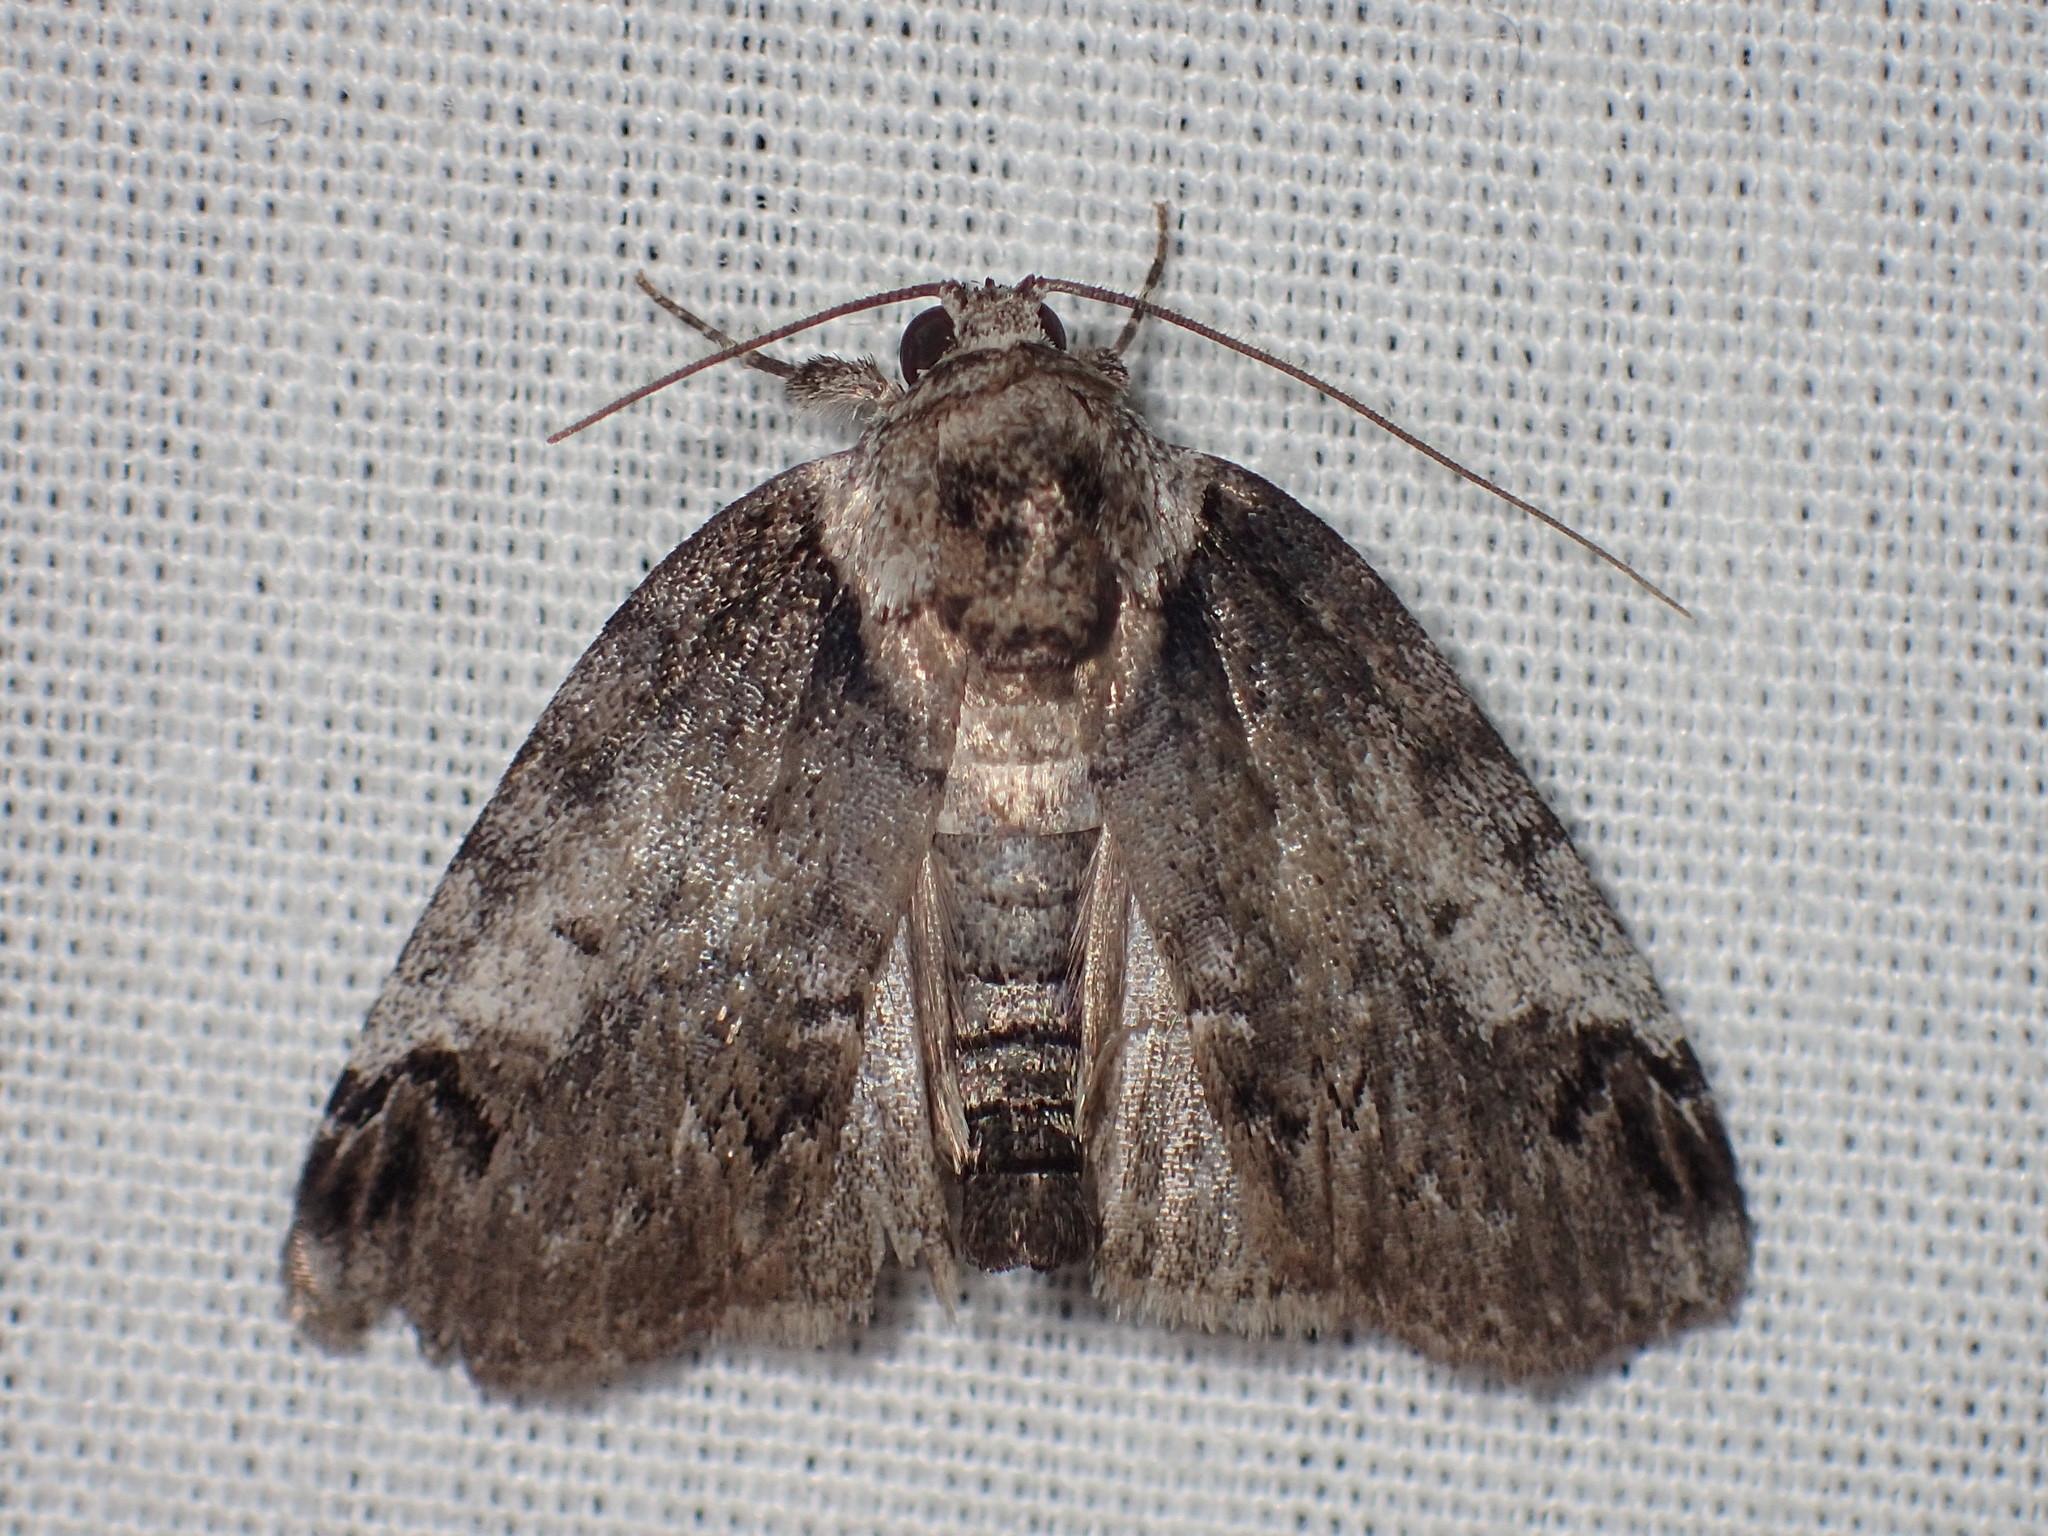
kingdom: Animalia
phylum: Arthropoda
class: Insecta
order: Lepidoptera
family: Nolidae
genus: Baileya
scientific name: Baileya dormitans
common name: Sleeping baileya moth
